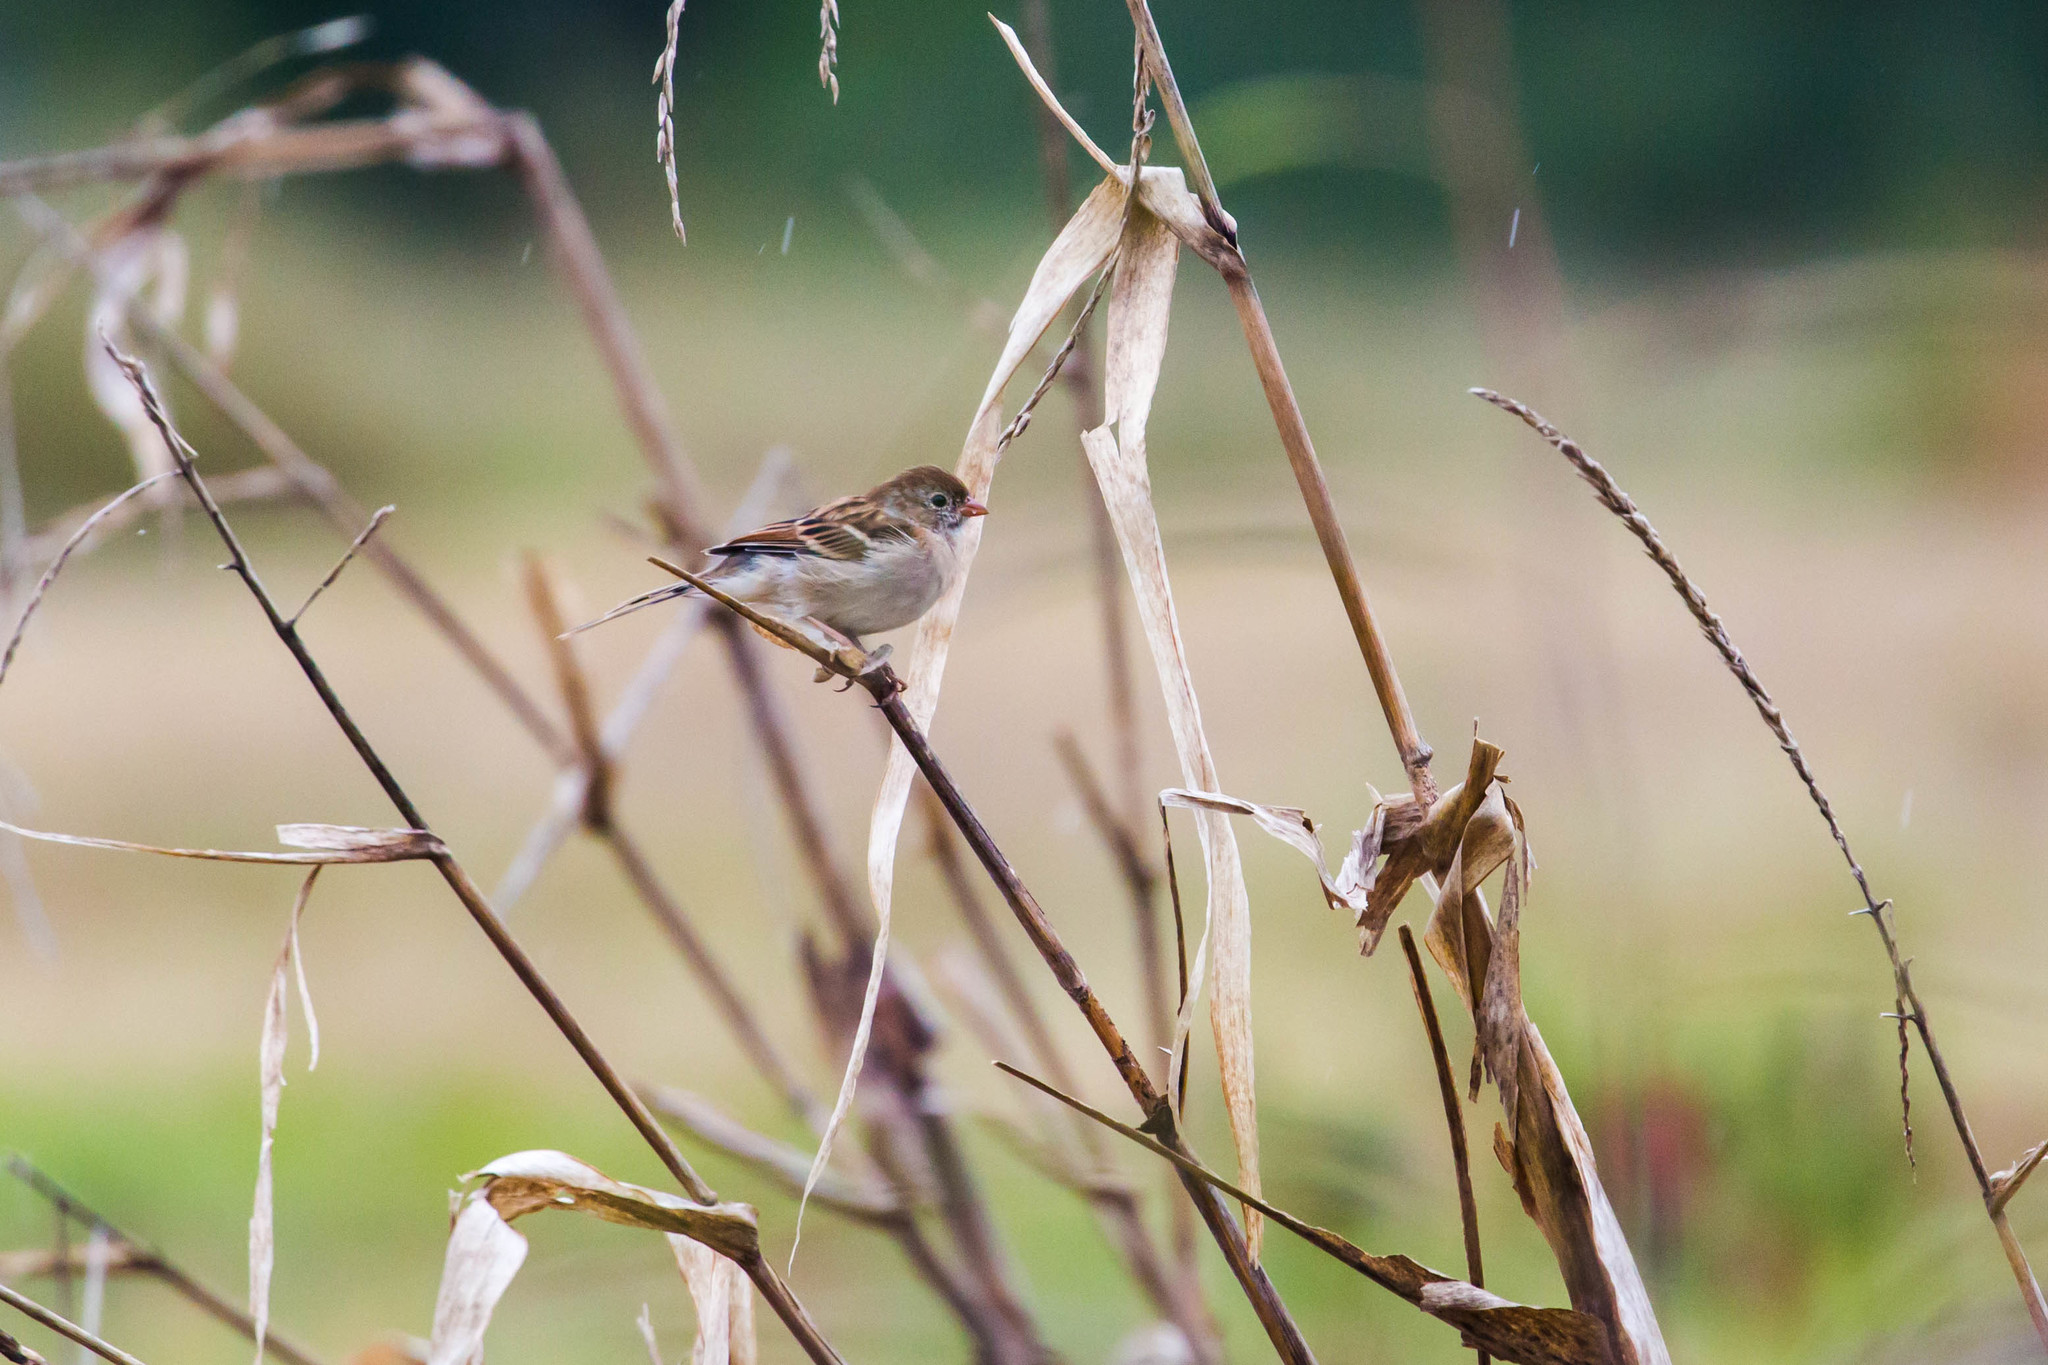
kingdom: Animalia
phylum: Chordata
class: Aves
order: Passeriformes
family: Passerellidae
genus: Spizella
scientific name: Spizella pusilla
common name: Field sparrow
